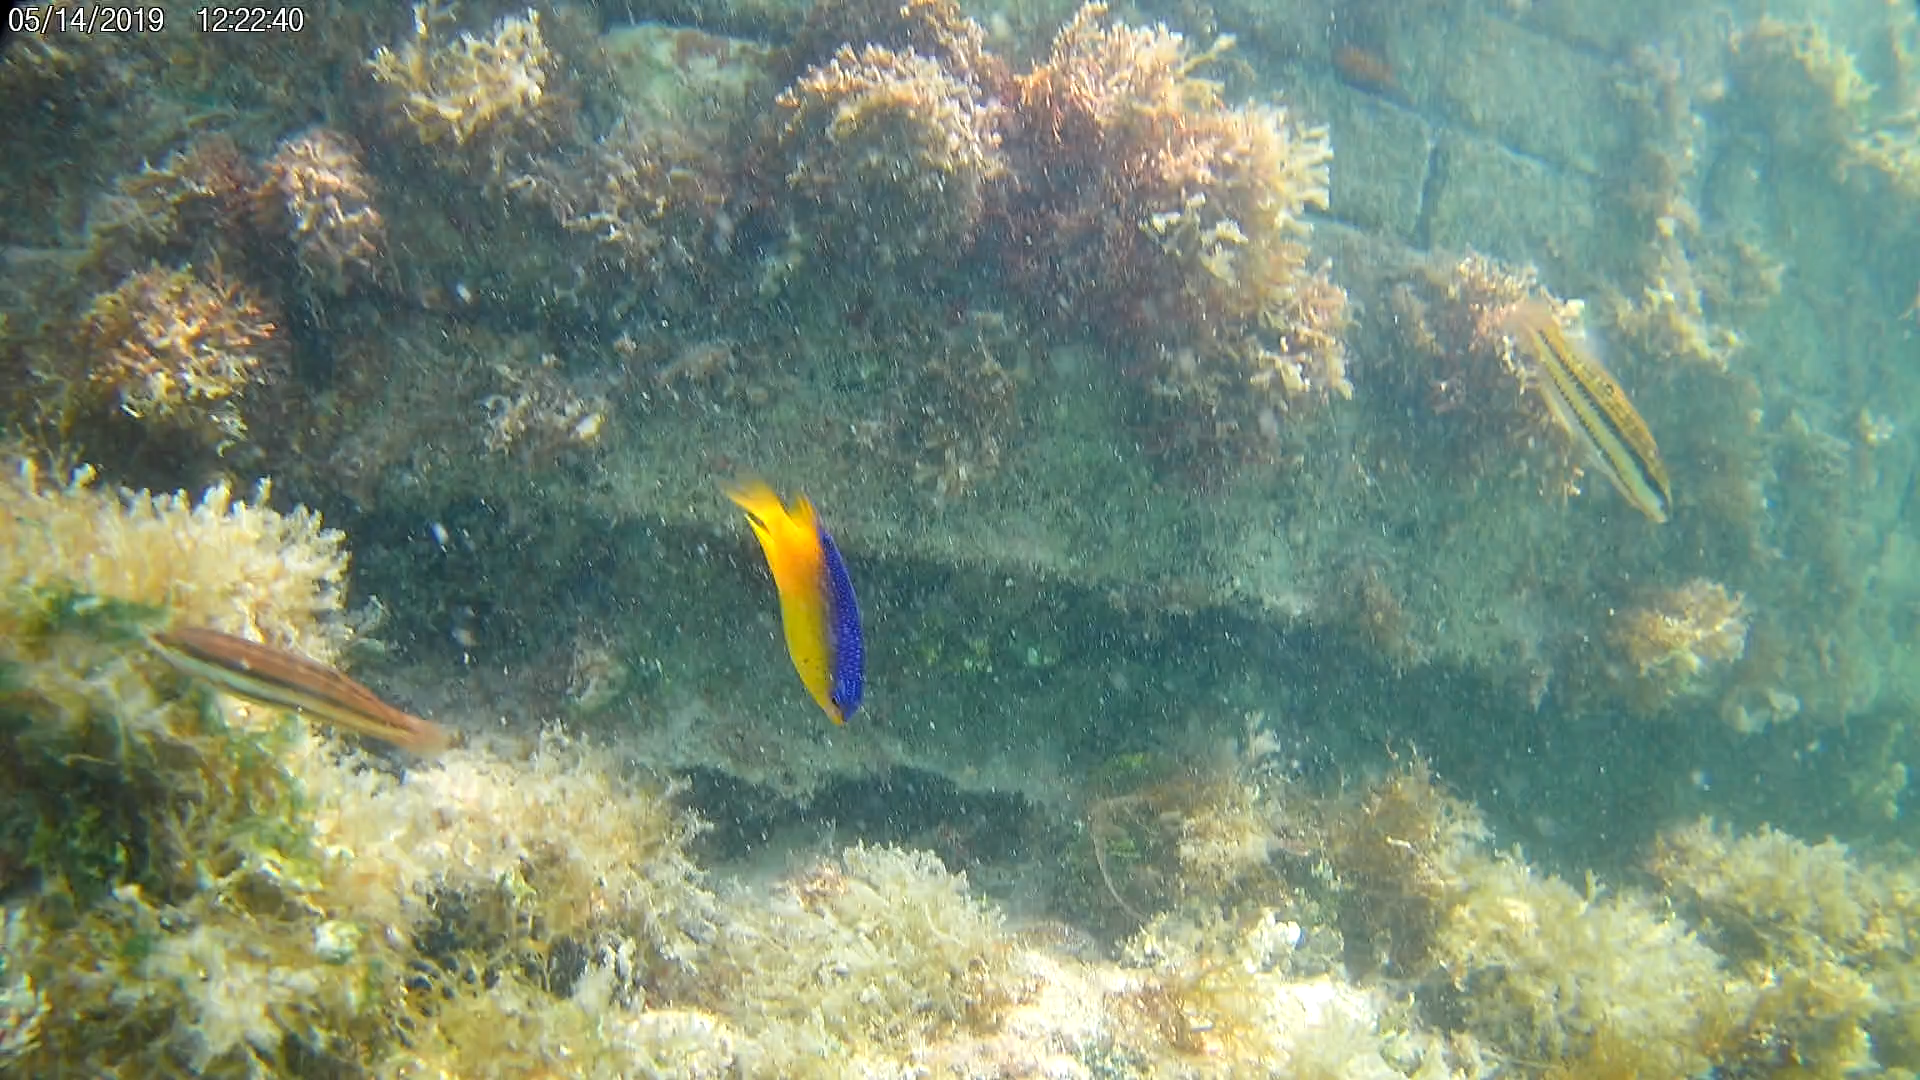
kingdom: Animalia
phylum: Chordata
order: Perciformes
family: Labridae
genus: Halichoeres
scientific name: Halichoeres bivittatus
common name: Slippery dick
